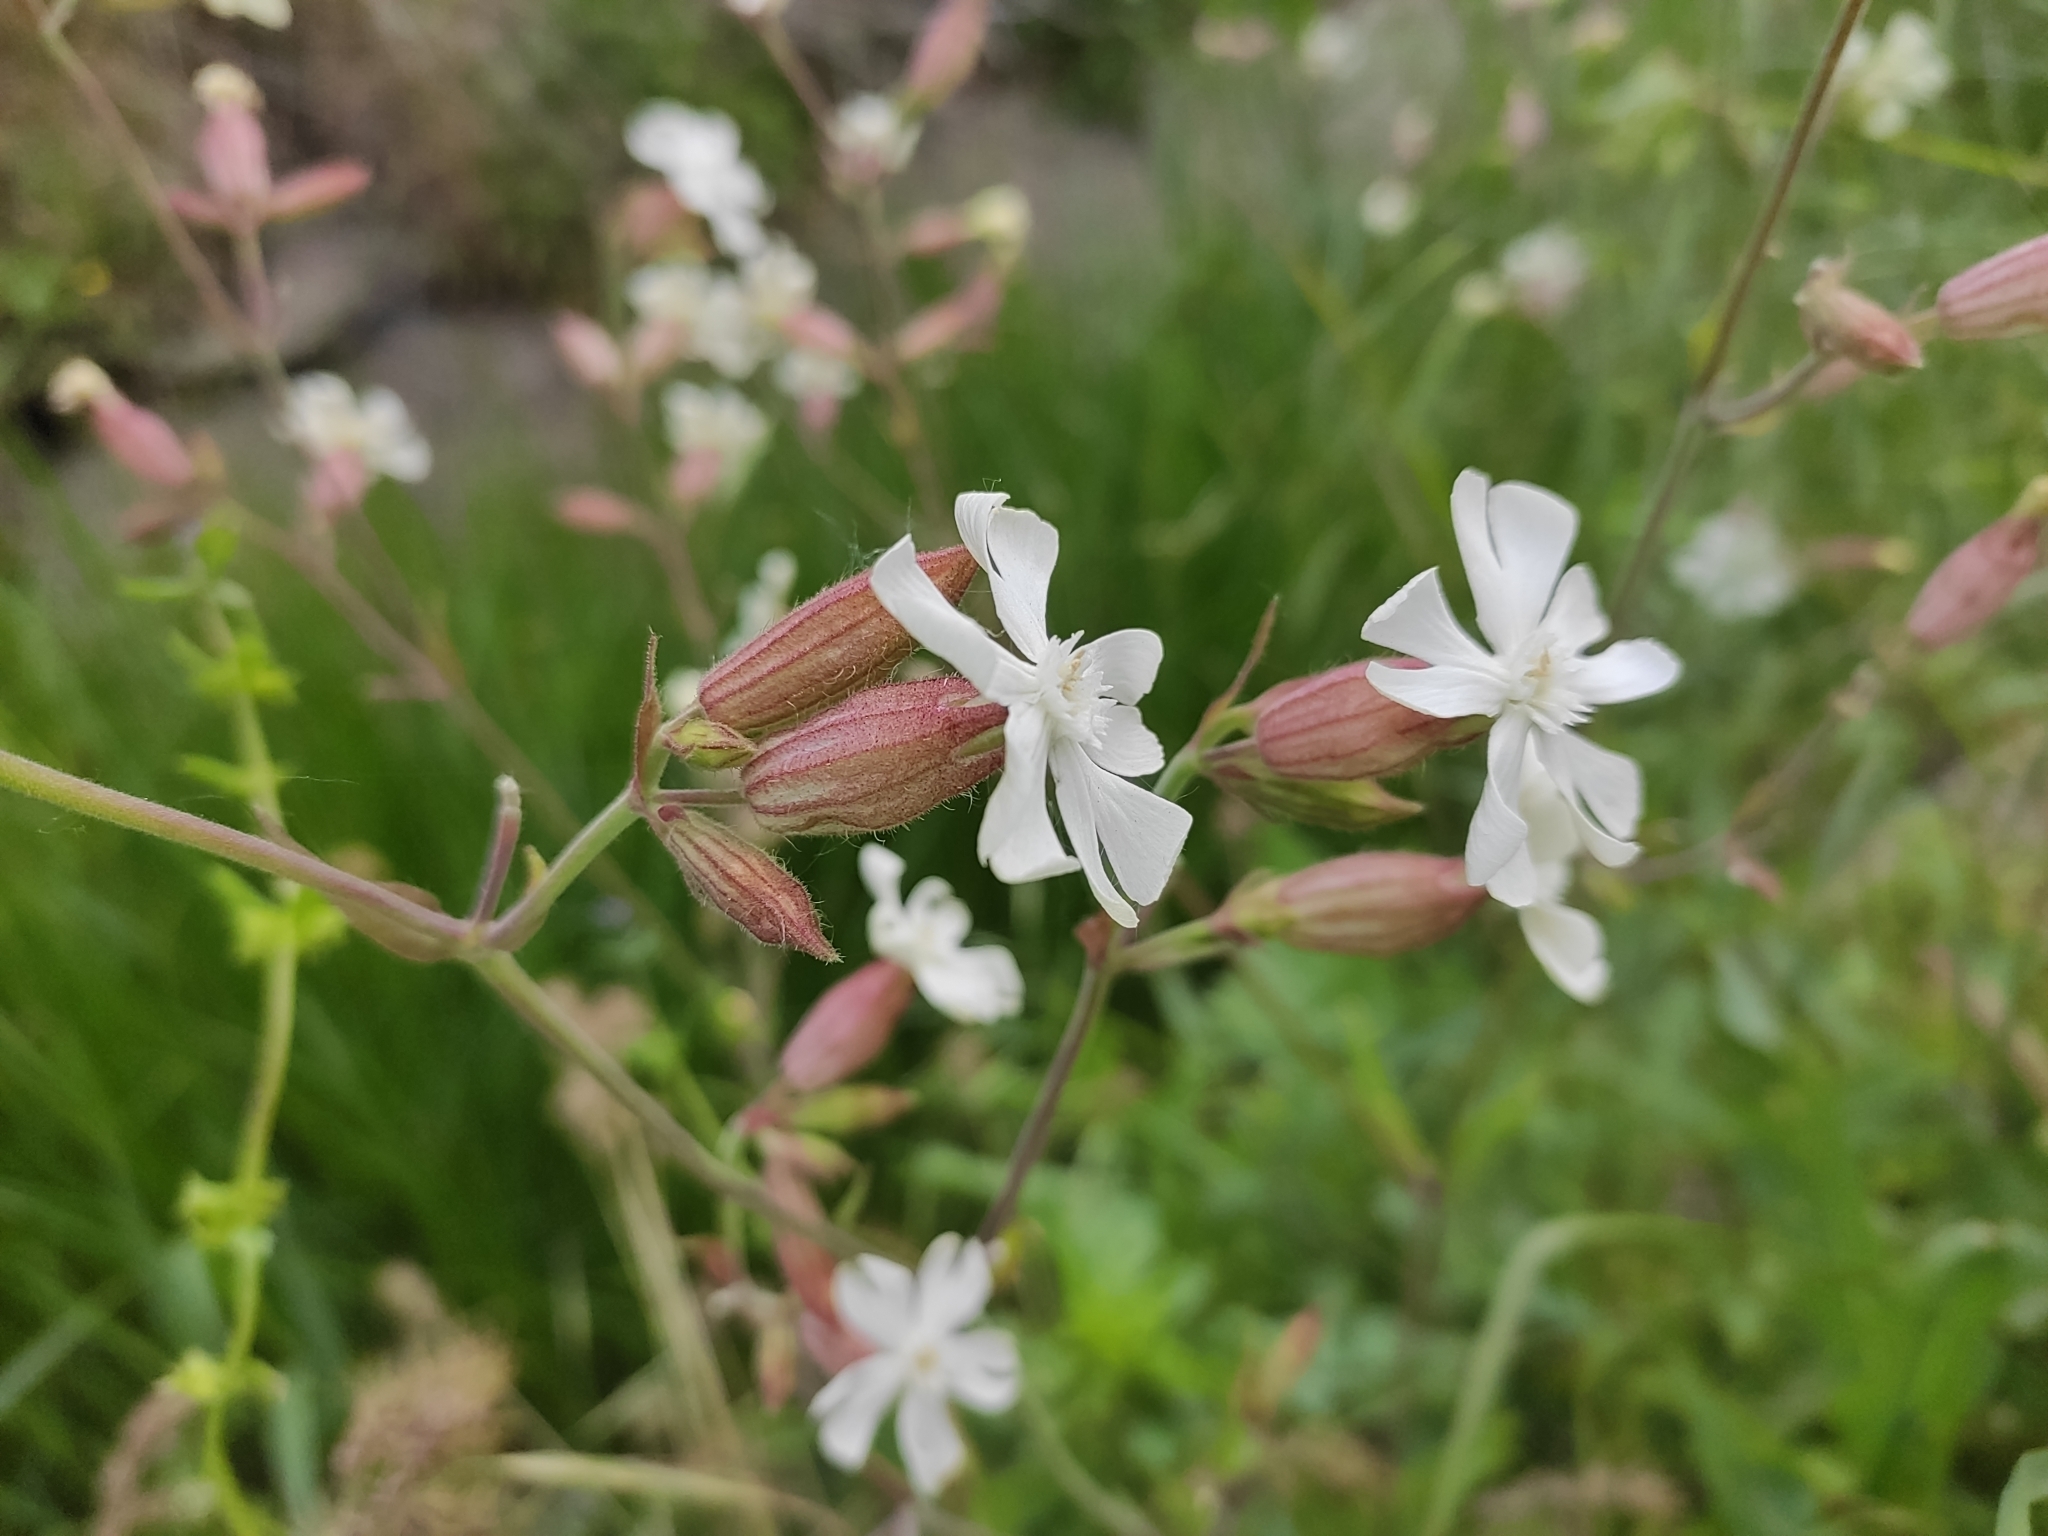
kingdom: Plantae
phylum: Tracheophyta
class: Magnoliopsida
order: Caryophyllales
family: Caryophyllaceae
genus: Silene
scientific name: Silene latifolia
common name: White campion
